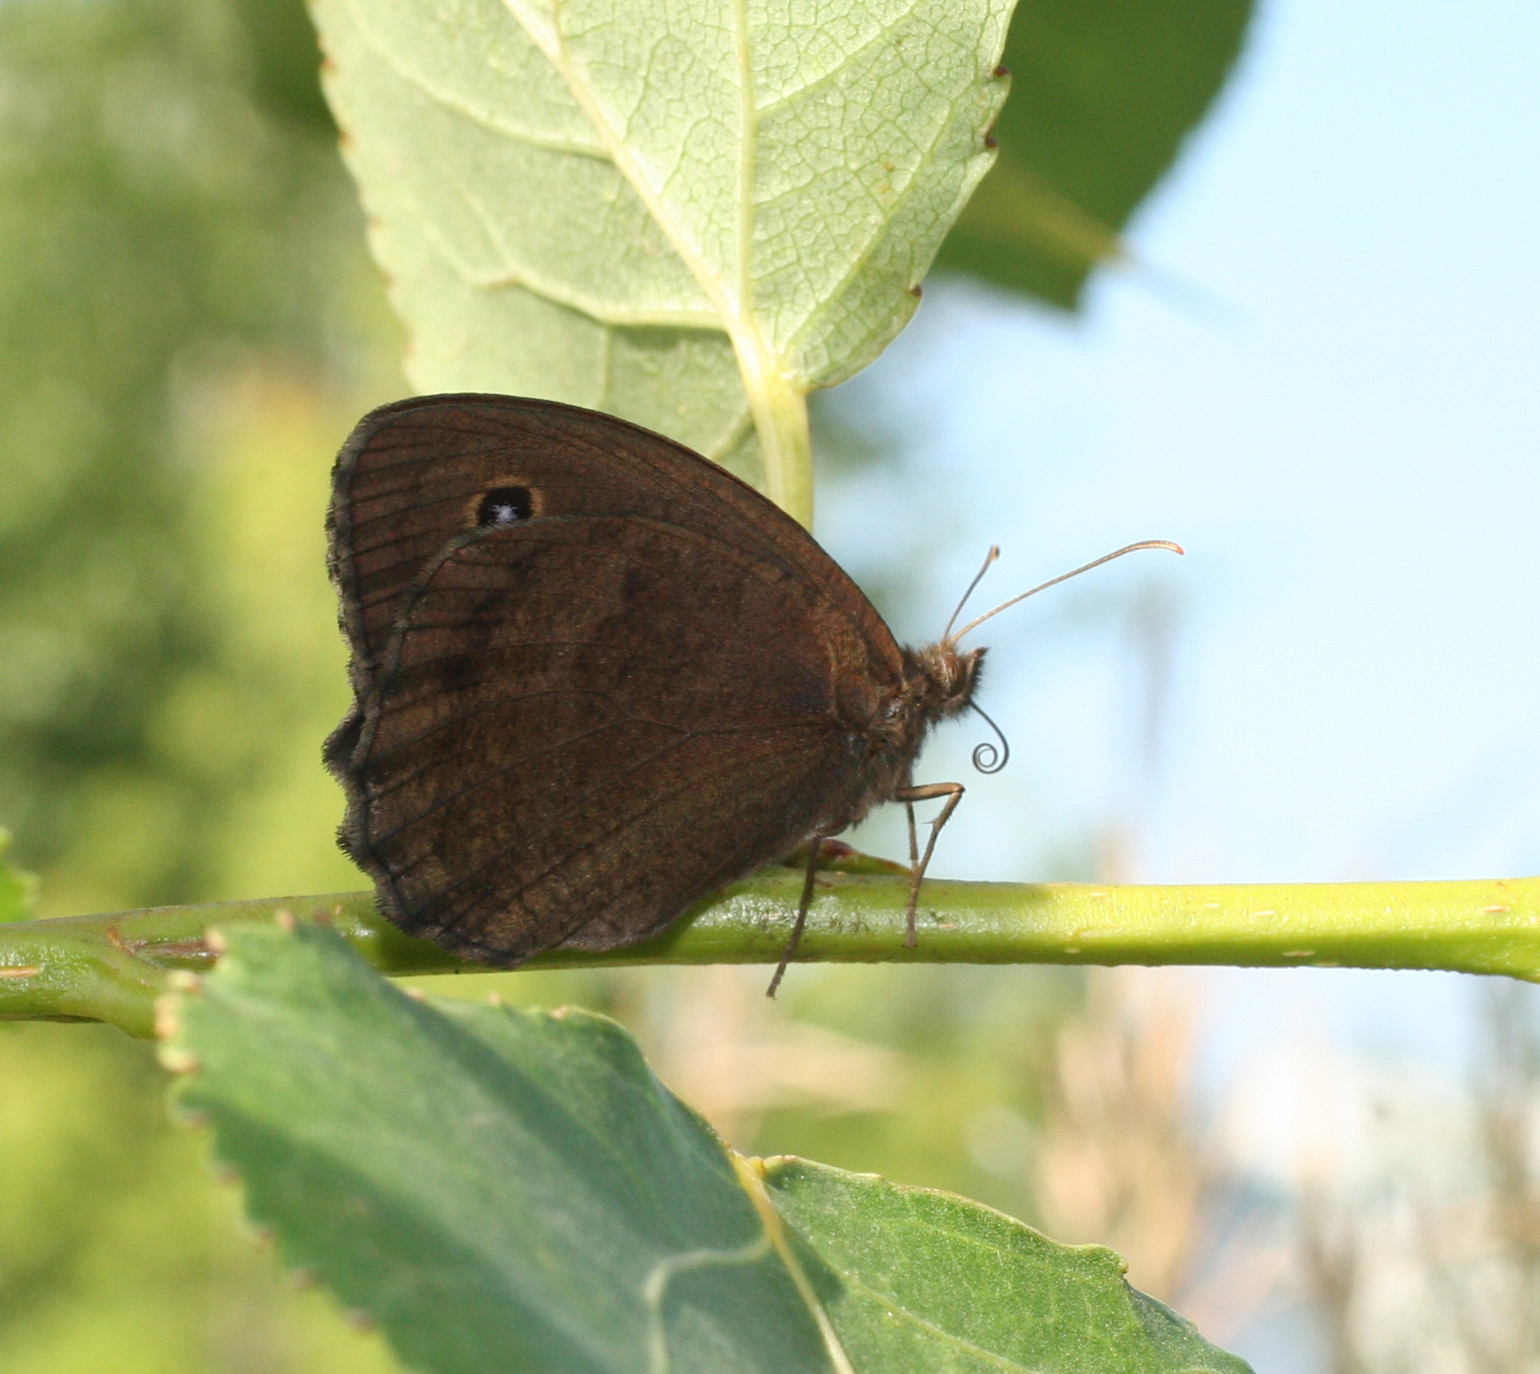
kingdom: Animalia
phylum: Arthropoda
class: Insecta
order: Lepidoptera
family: Nymphalidae
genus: Minois
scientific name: Minois dryas
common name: Dryad
